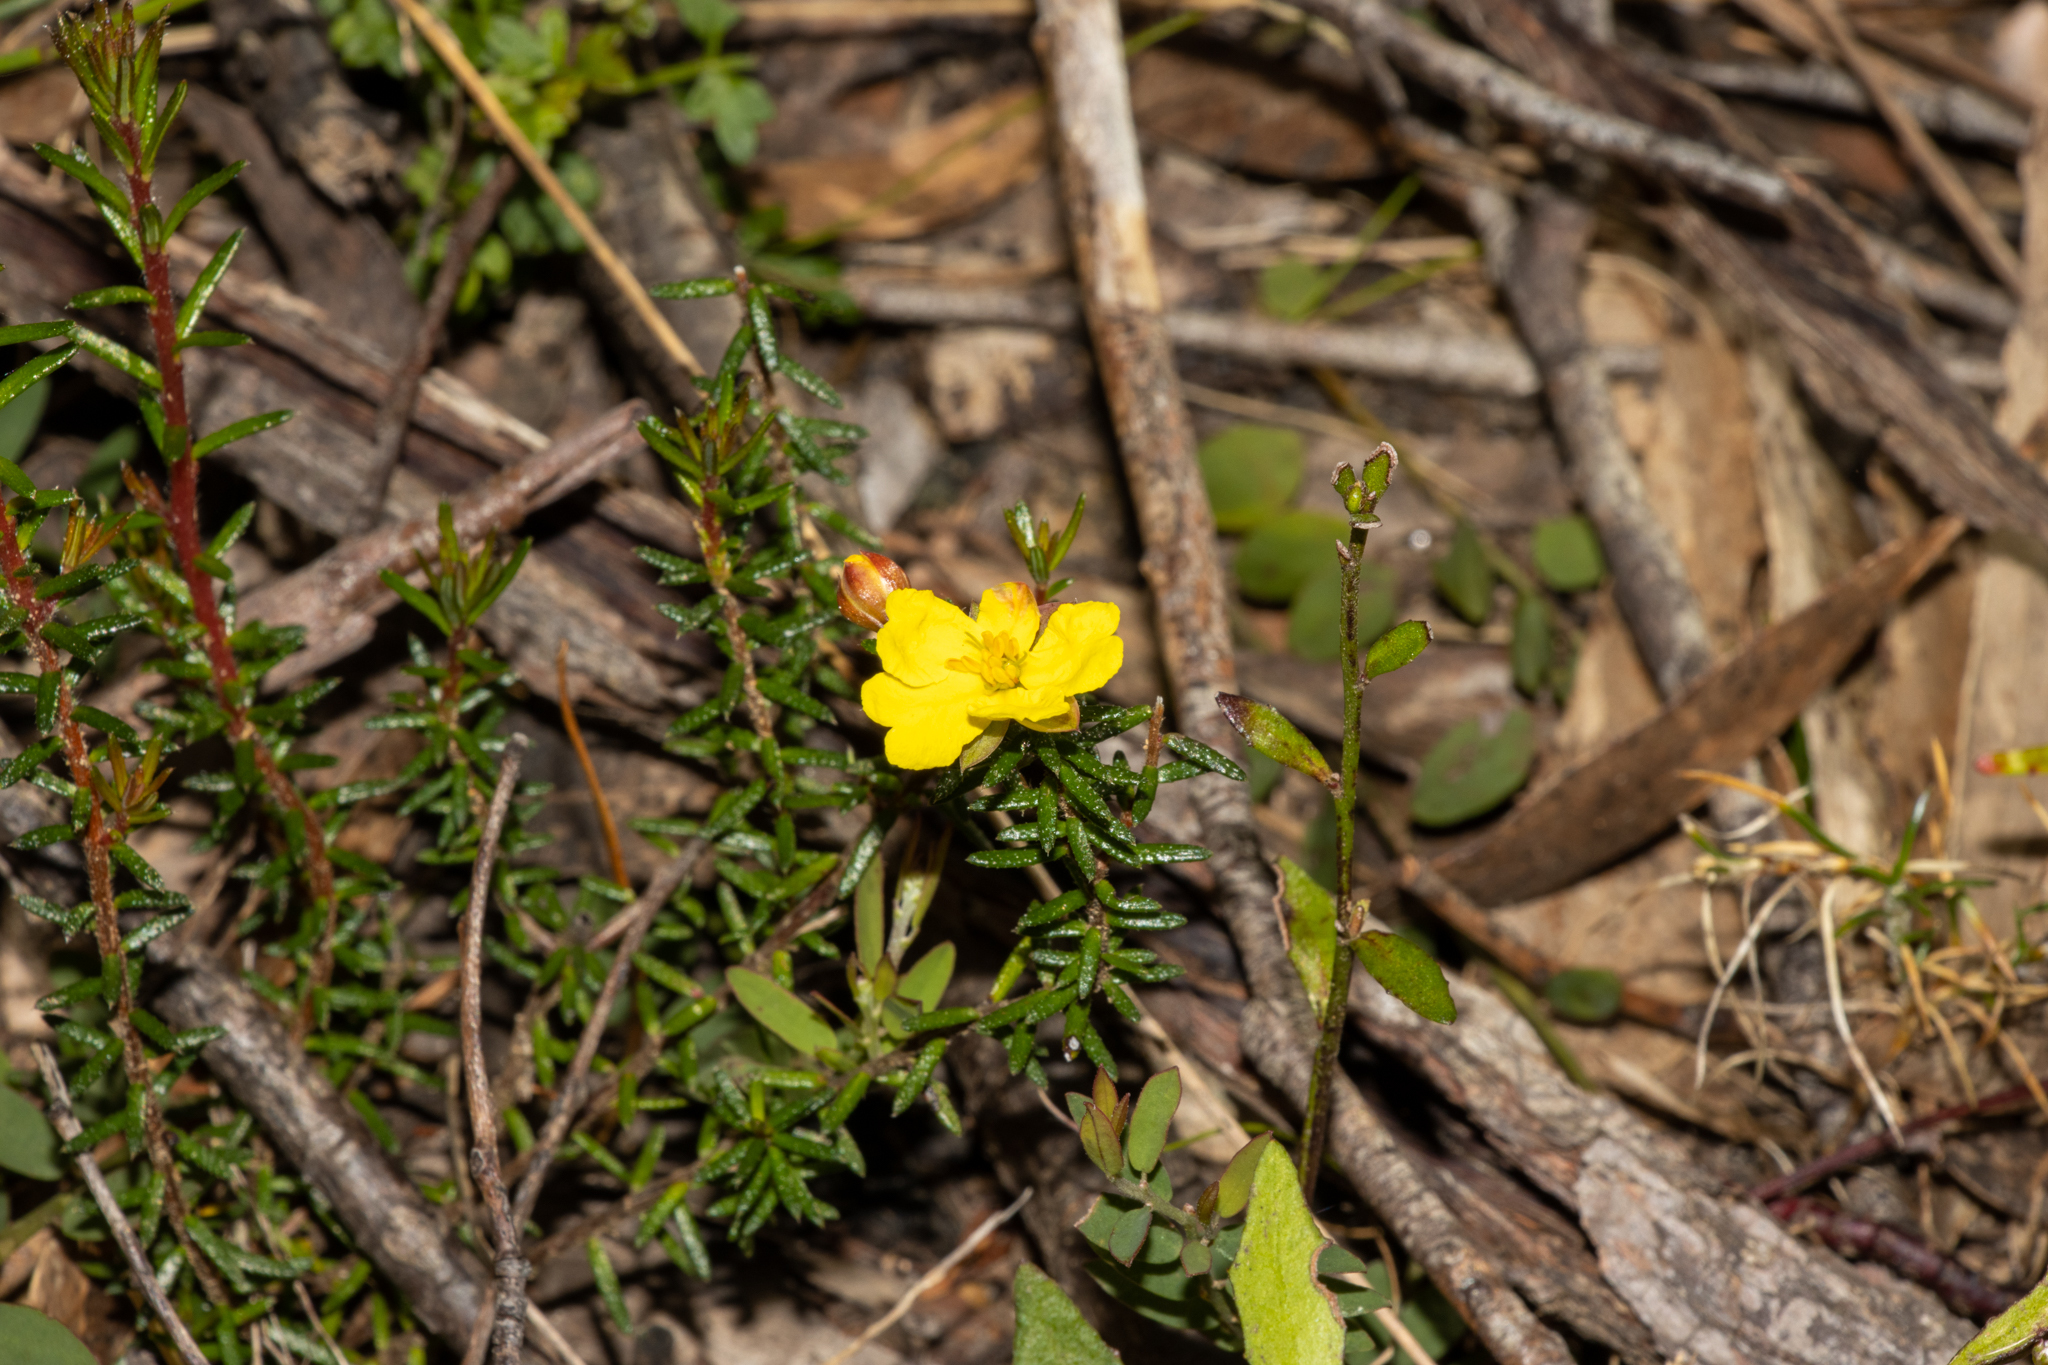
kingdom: Plantae
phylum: Tracheophyta
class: Magnoliopsida
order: Dilleniales
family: Dilleniaceae
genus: Hibbertia
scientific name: Hibbertia intermedia
